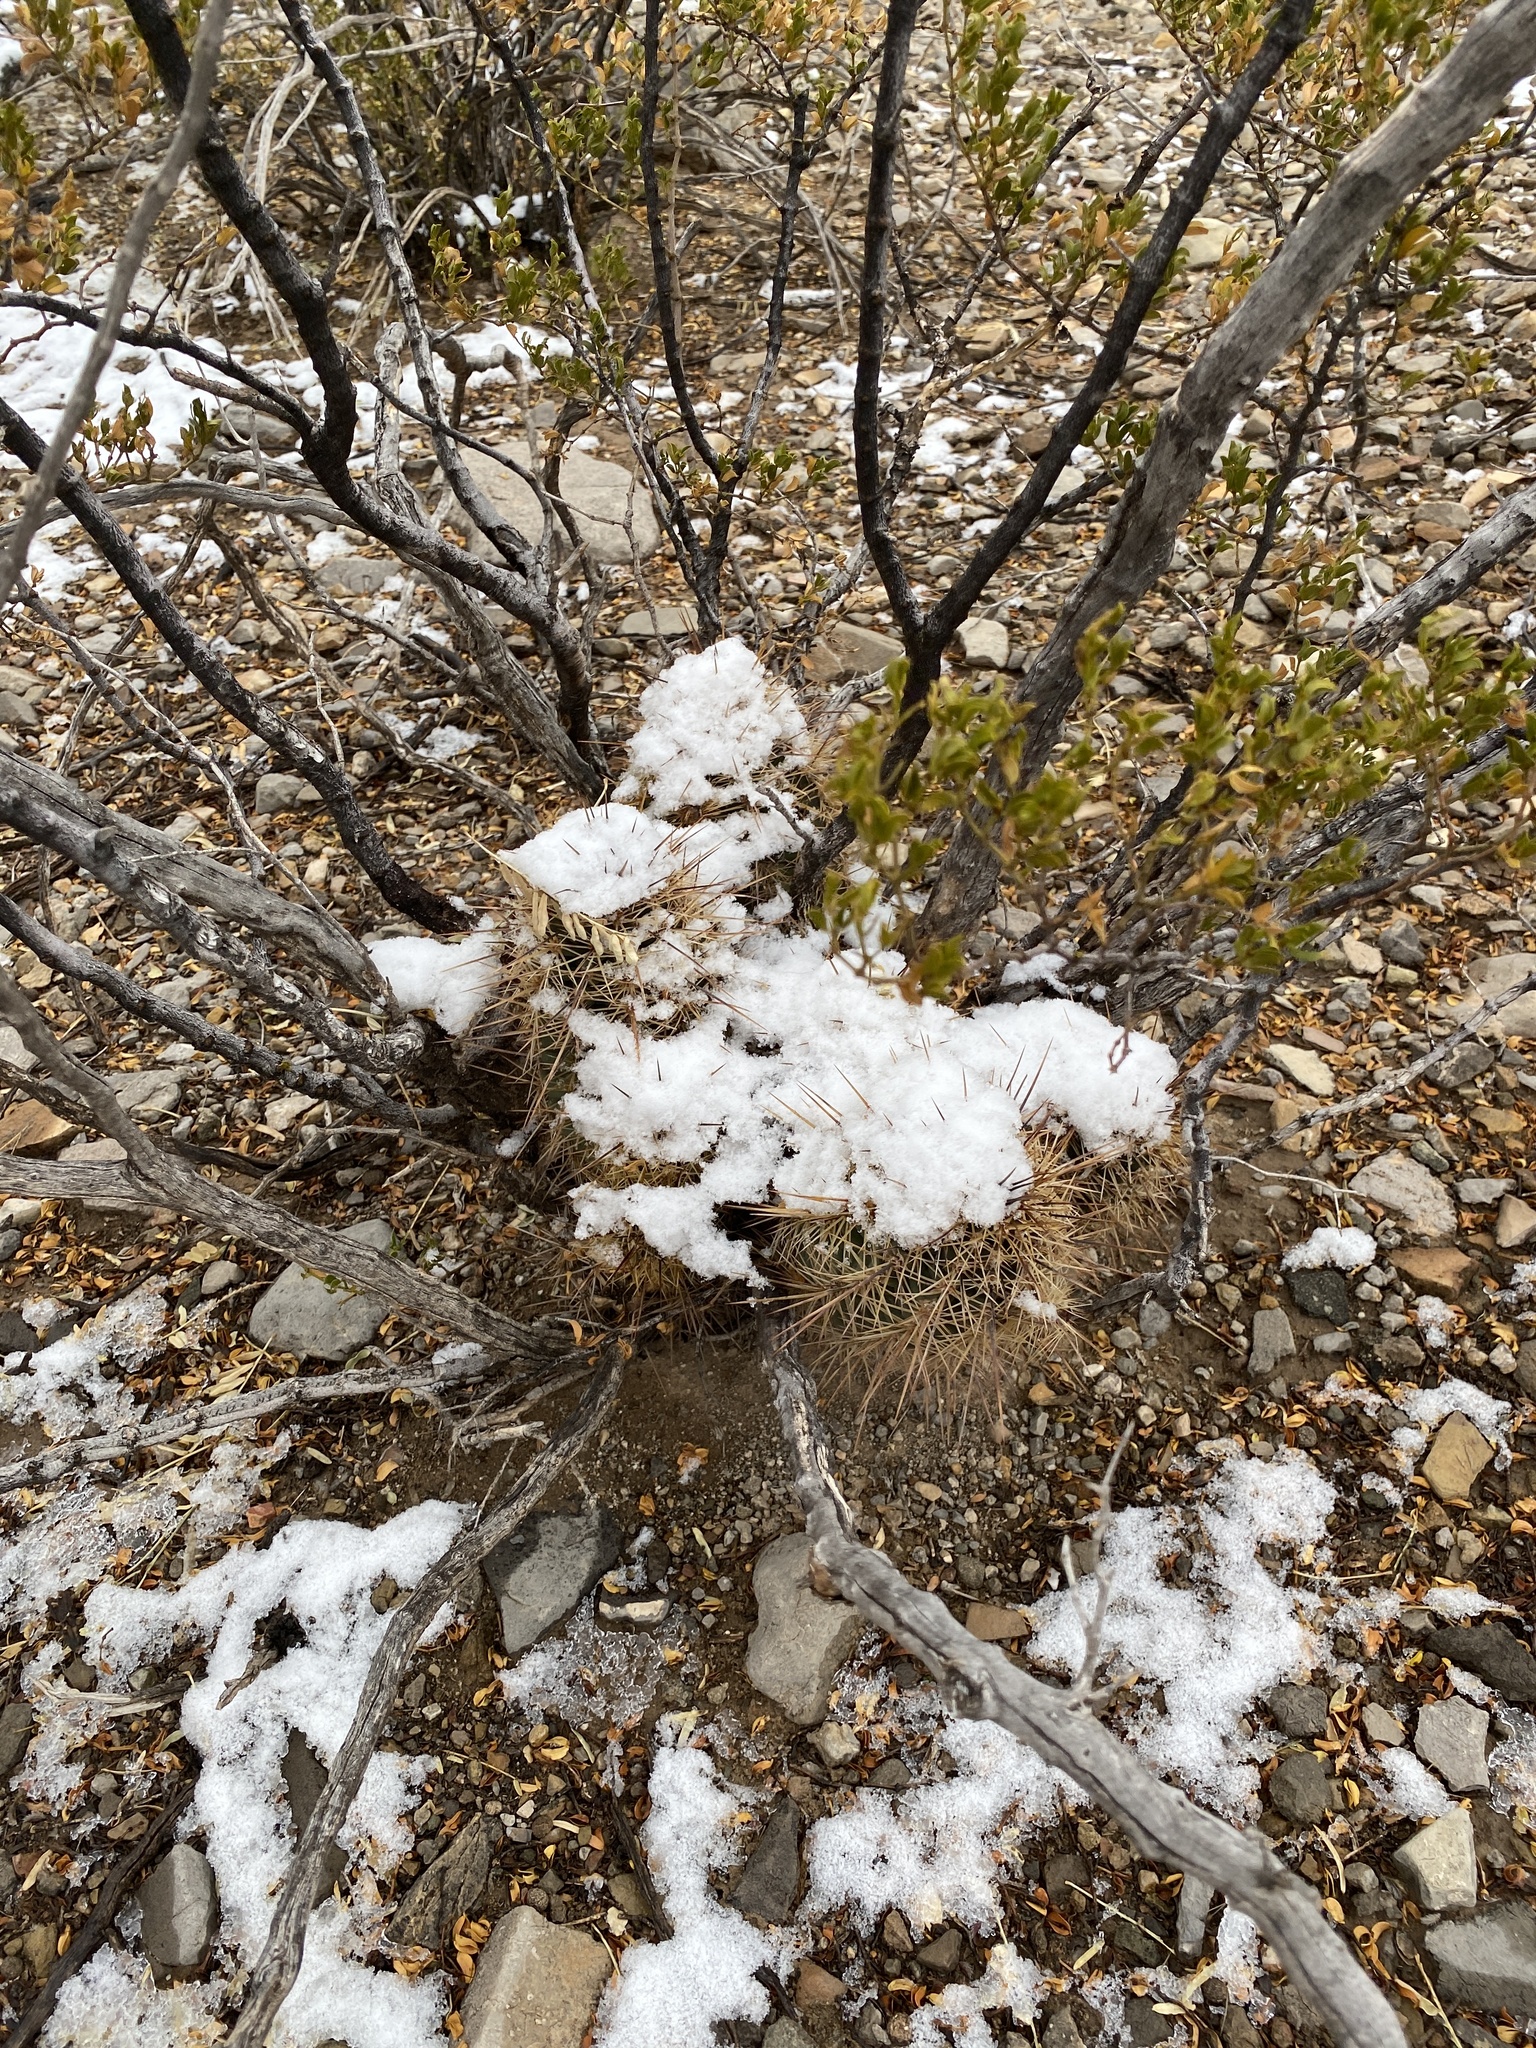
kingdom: Plantae
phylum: Tracheophyta
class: Magnoliopsida
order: Caryophyllales
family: Cactaceae
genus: Echinocereus
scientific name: Echinocereus coccineus
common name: Scarlet hedgehog cactus
